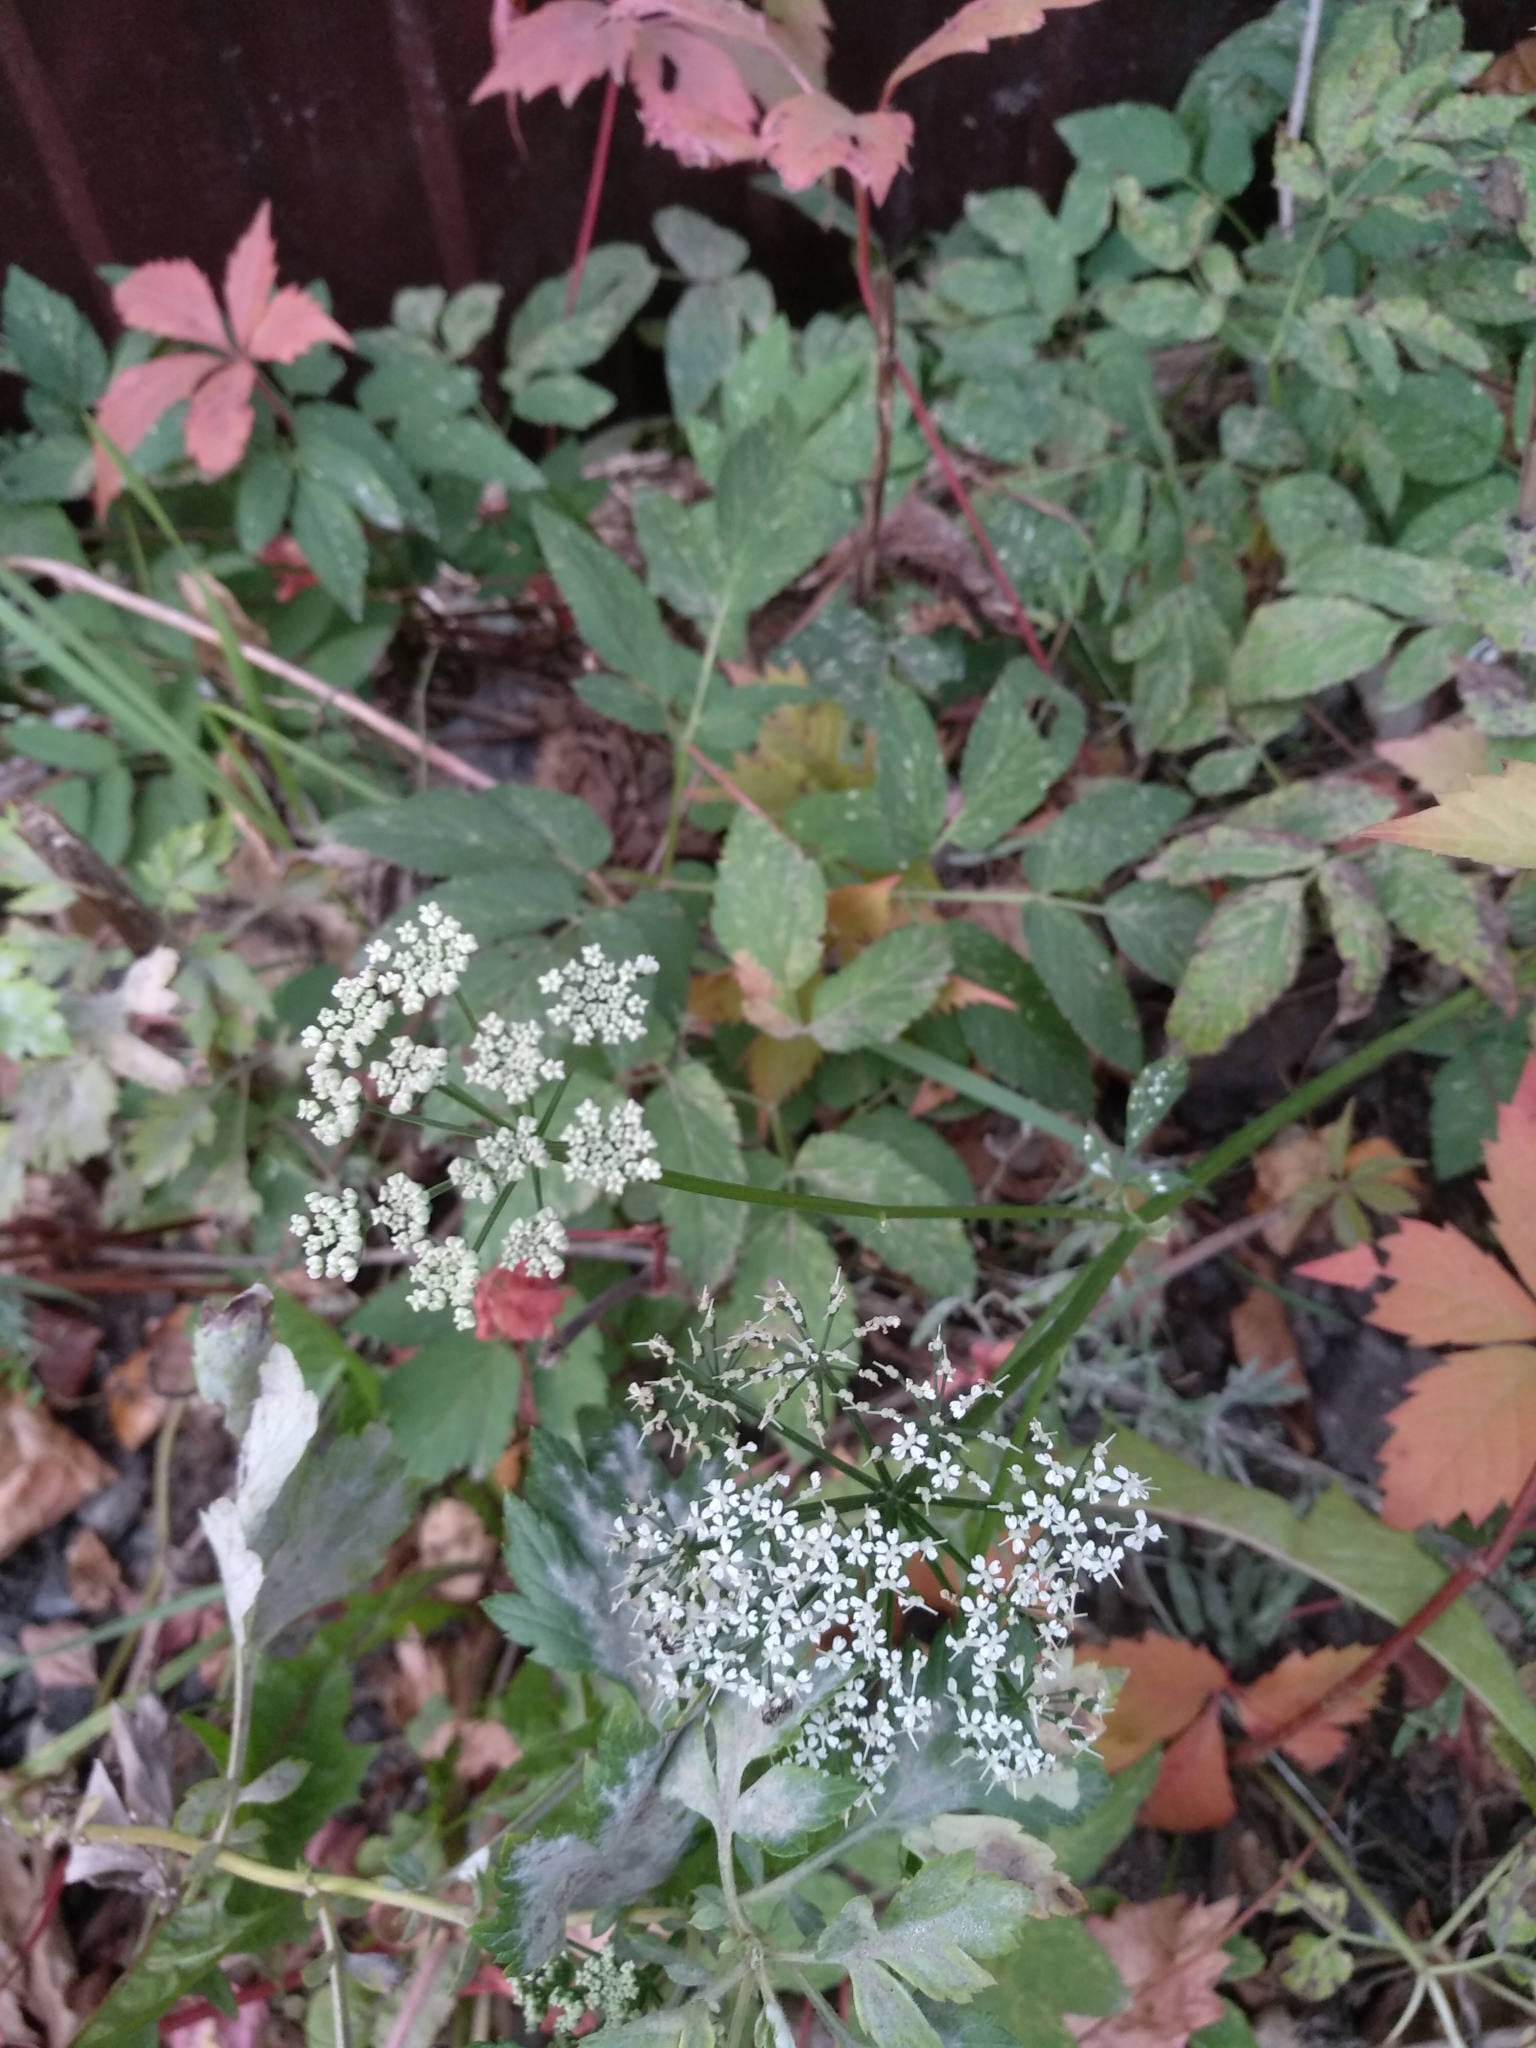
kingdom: Plantae
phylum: Tracheophyta
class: Magnoliopsida
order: Apiales
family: Apiaceae
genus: Aegopodium
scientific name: Aegopodium podagraria
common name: Ground-elder
